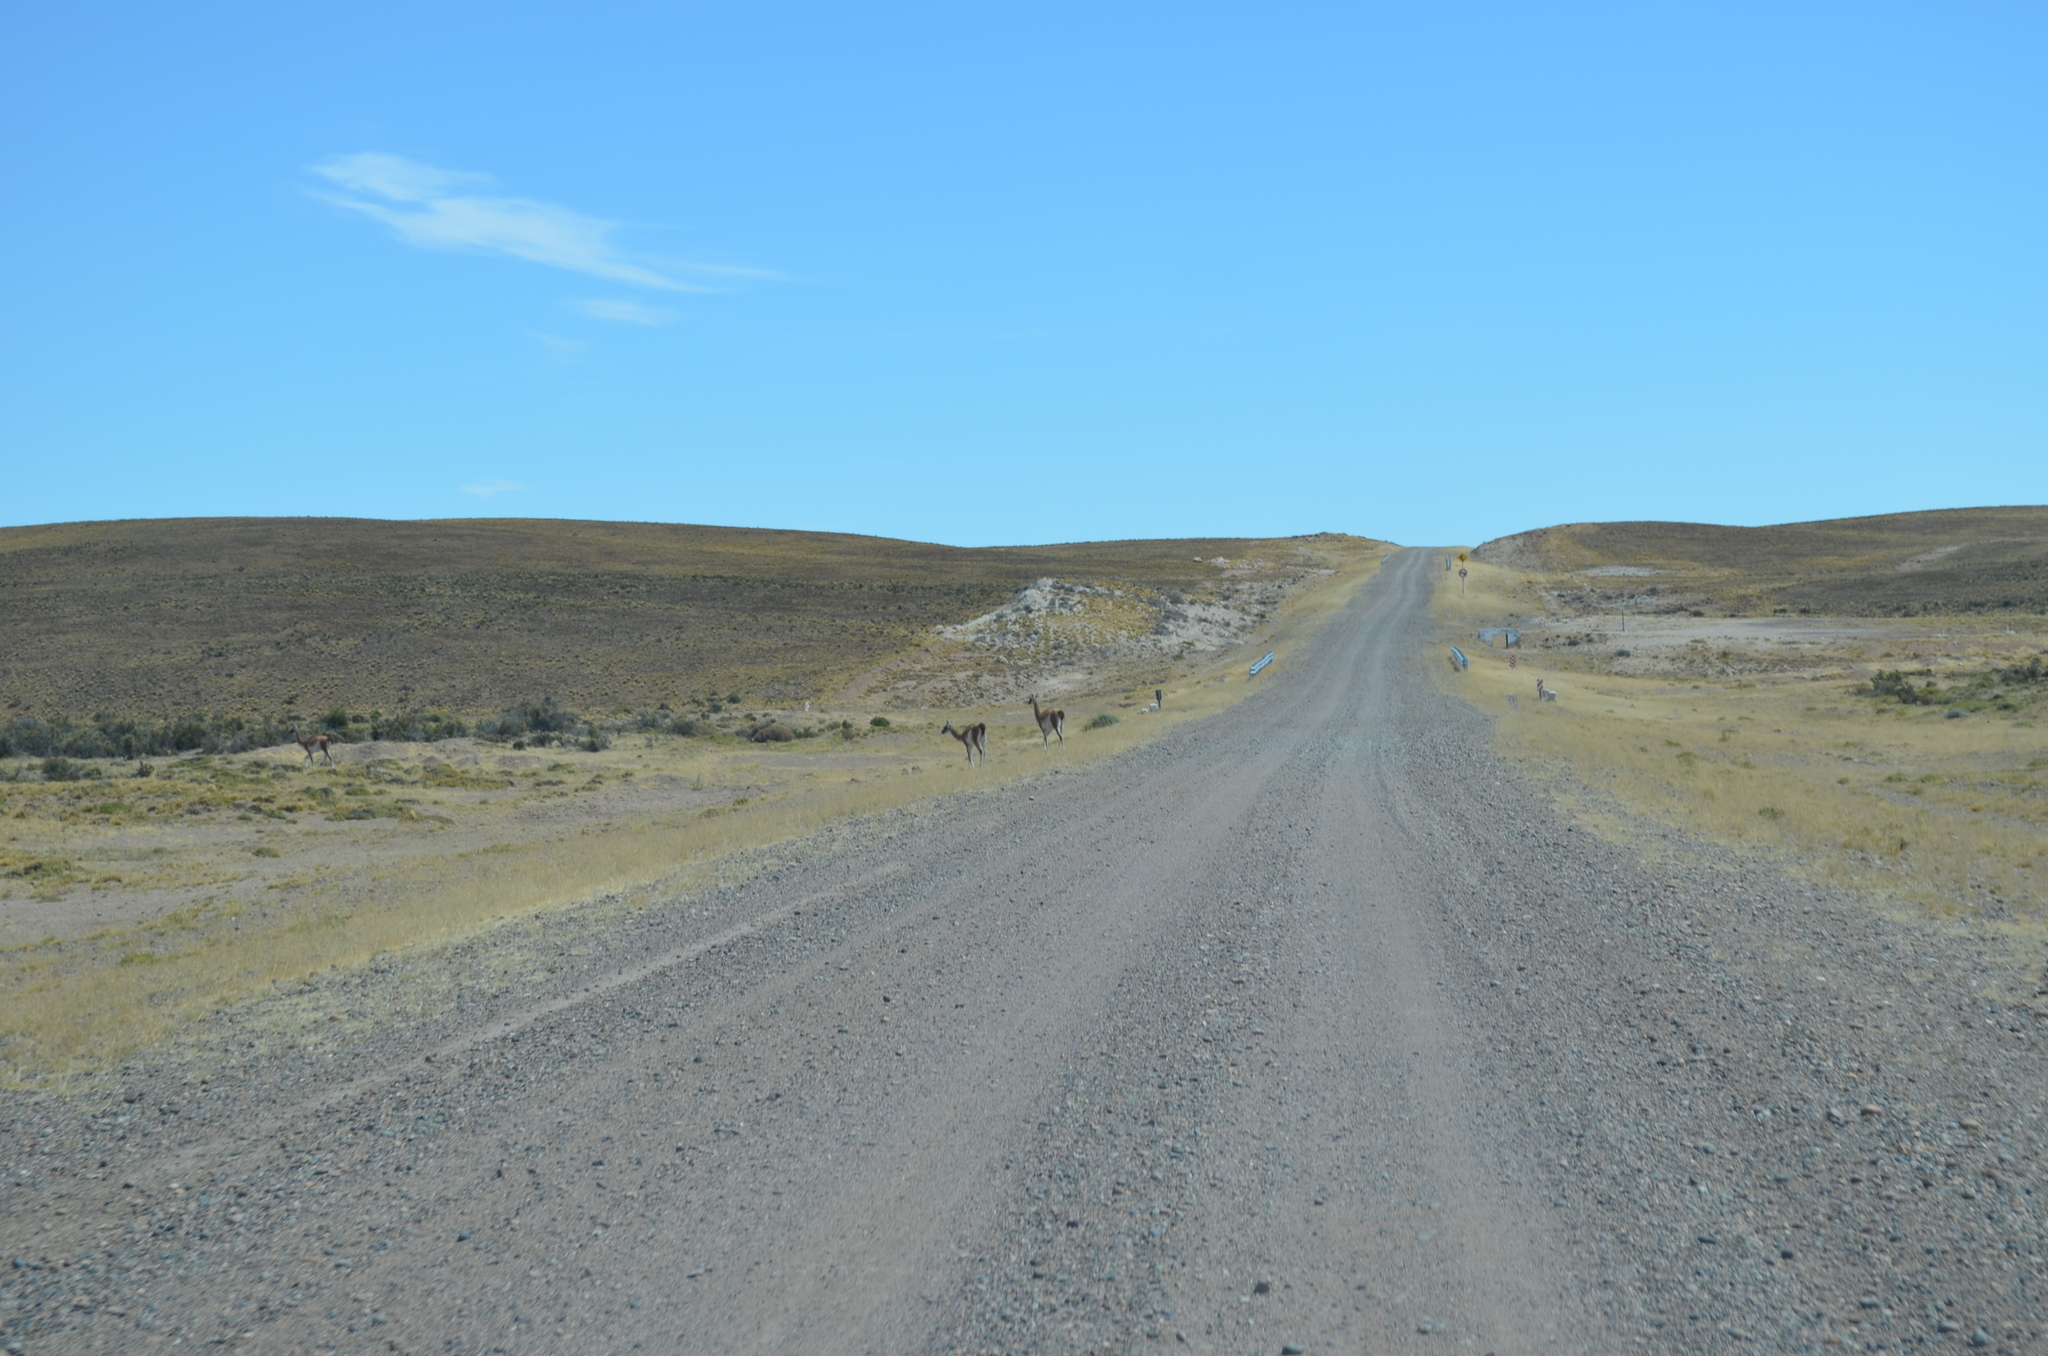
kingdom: Animalia
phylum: Chordata
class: Mammalia
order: Artiodactyla
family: Camelidae
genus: Lama
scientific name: Lama glama
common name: Llama
